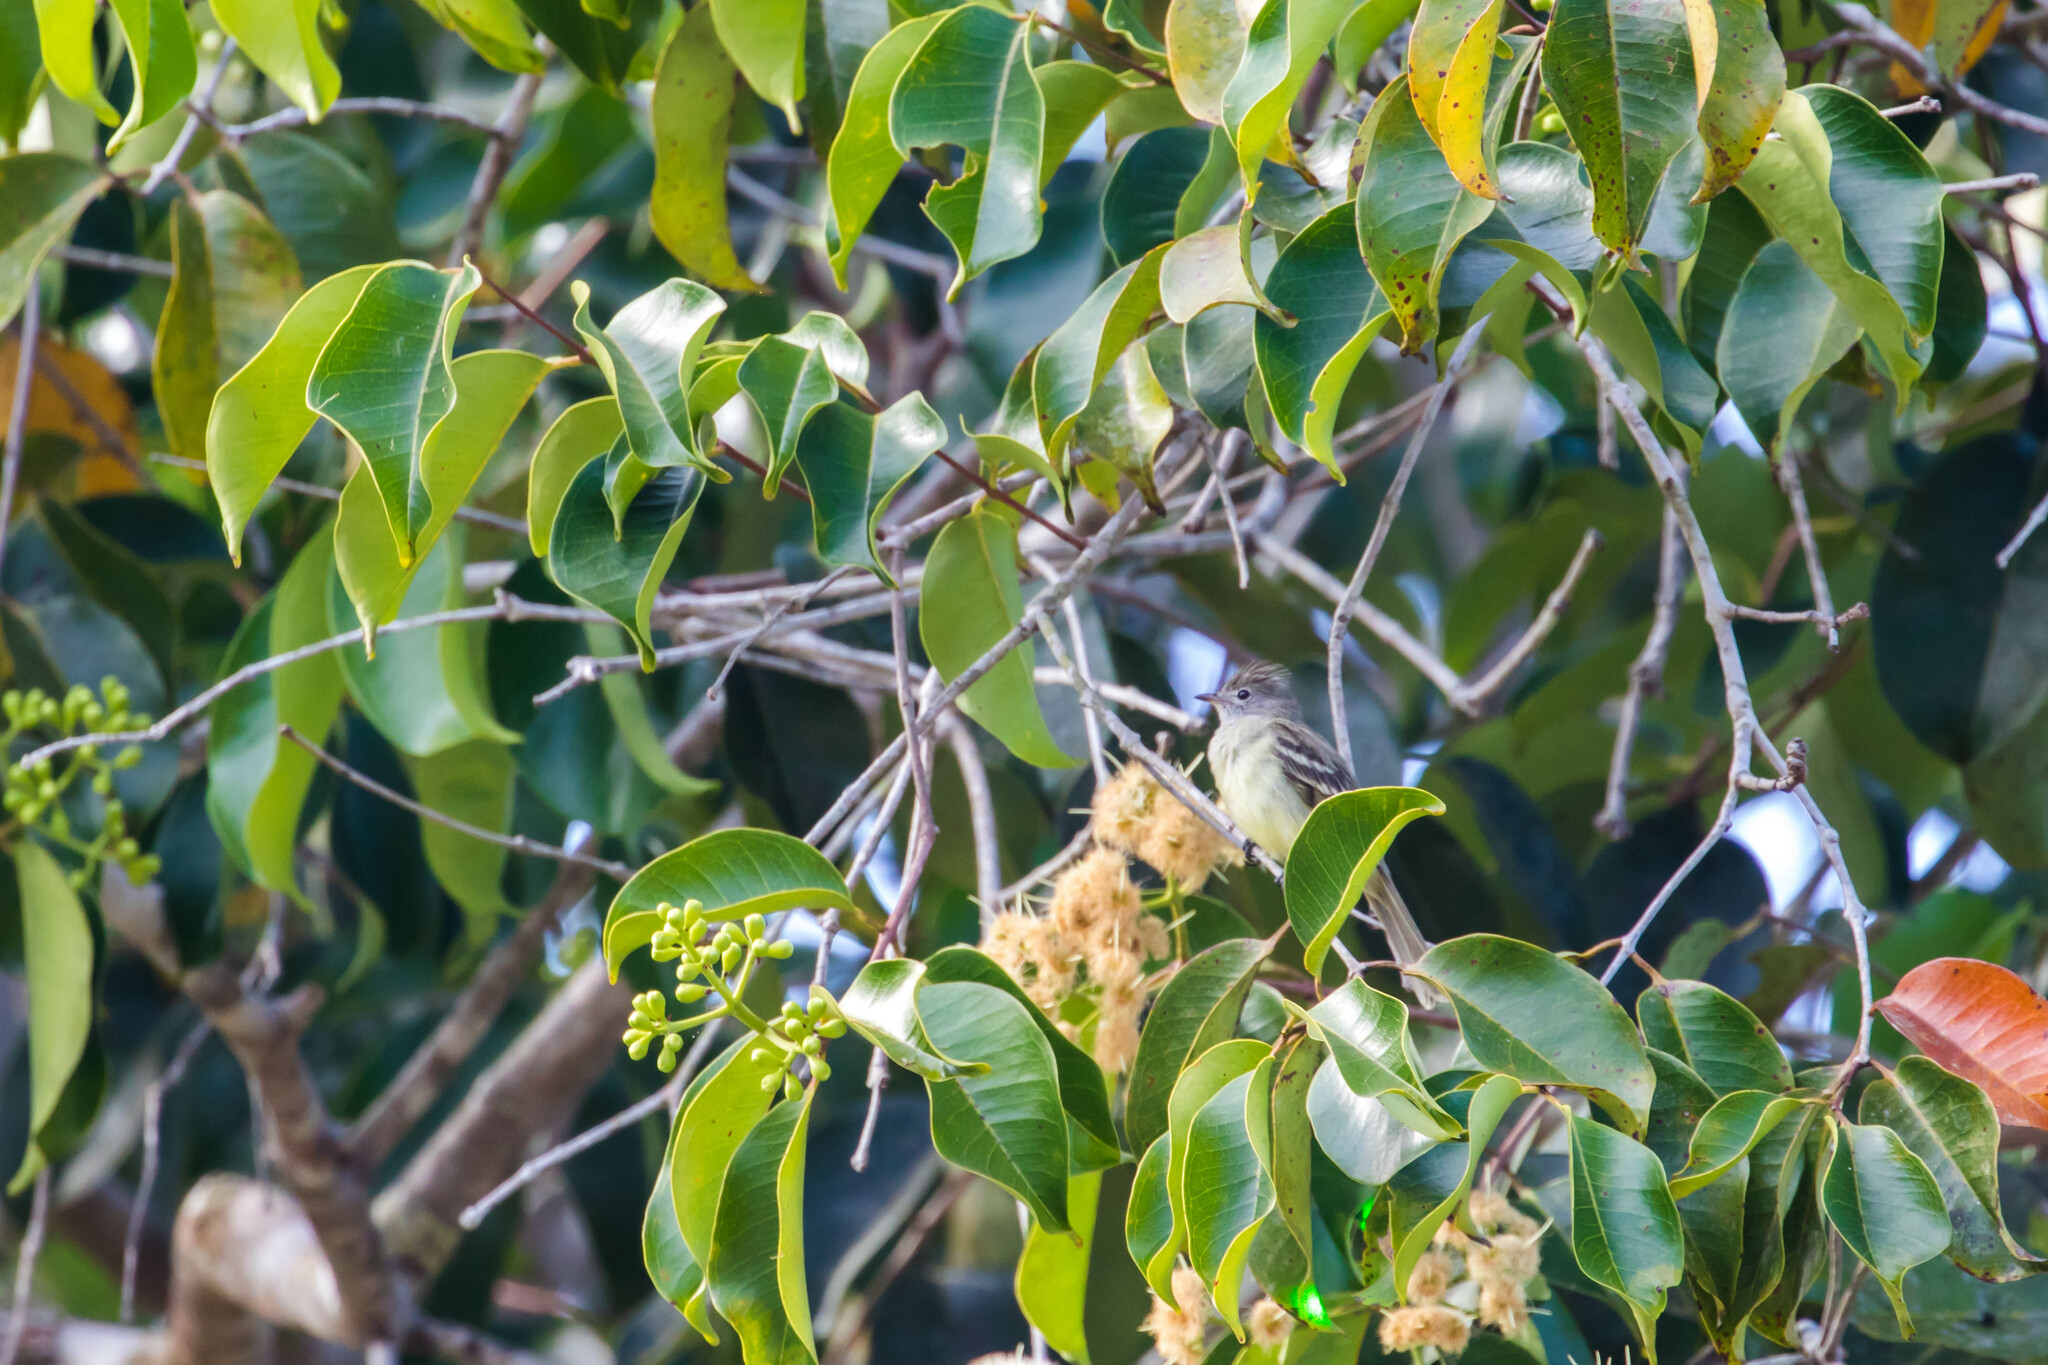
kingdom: Animalia
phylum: Chordata
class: Aves
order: Passeriformes
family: Tyrannidae
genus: Elaenia
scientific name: Elaenia flavogaster
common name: Yellow-bellied elaenia
